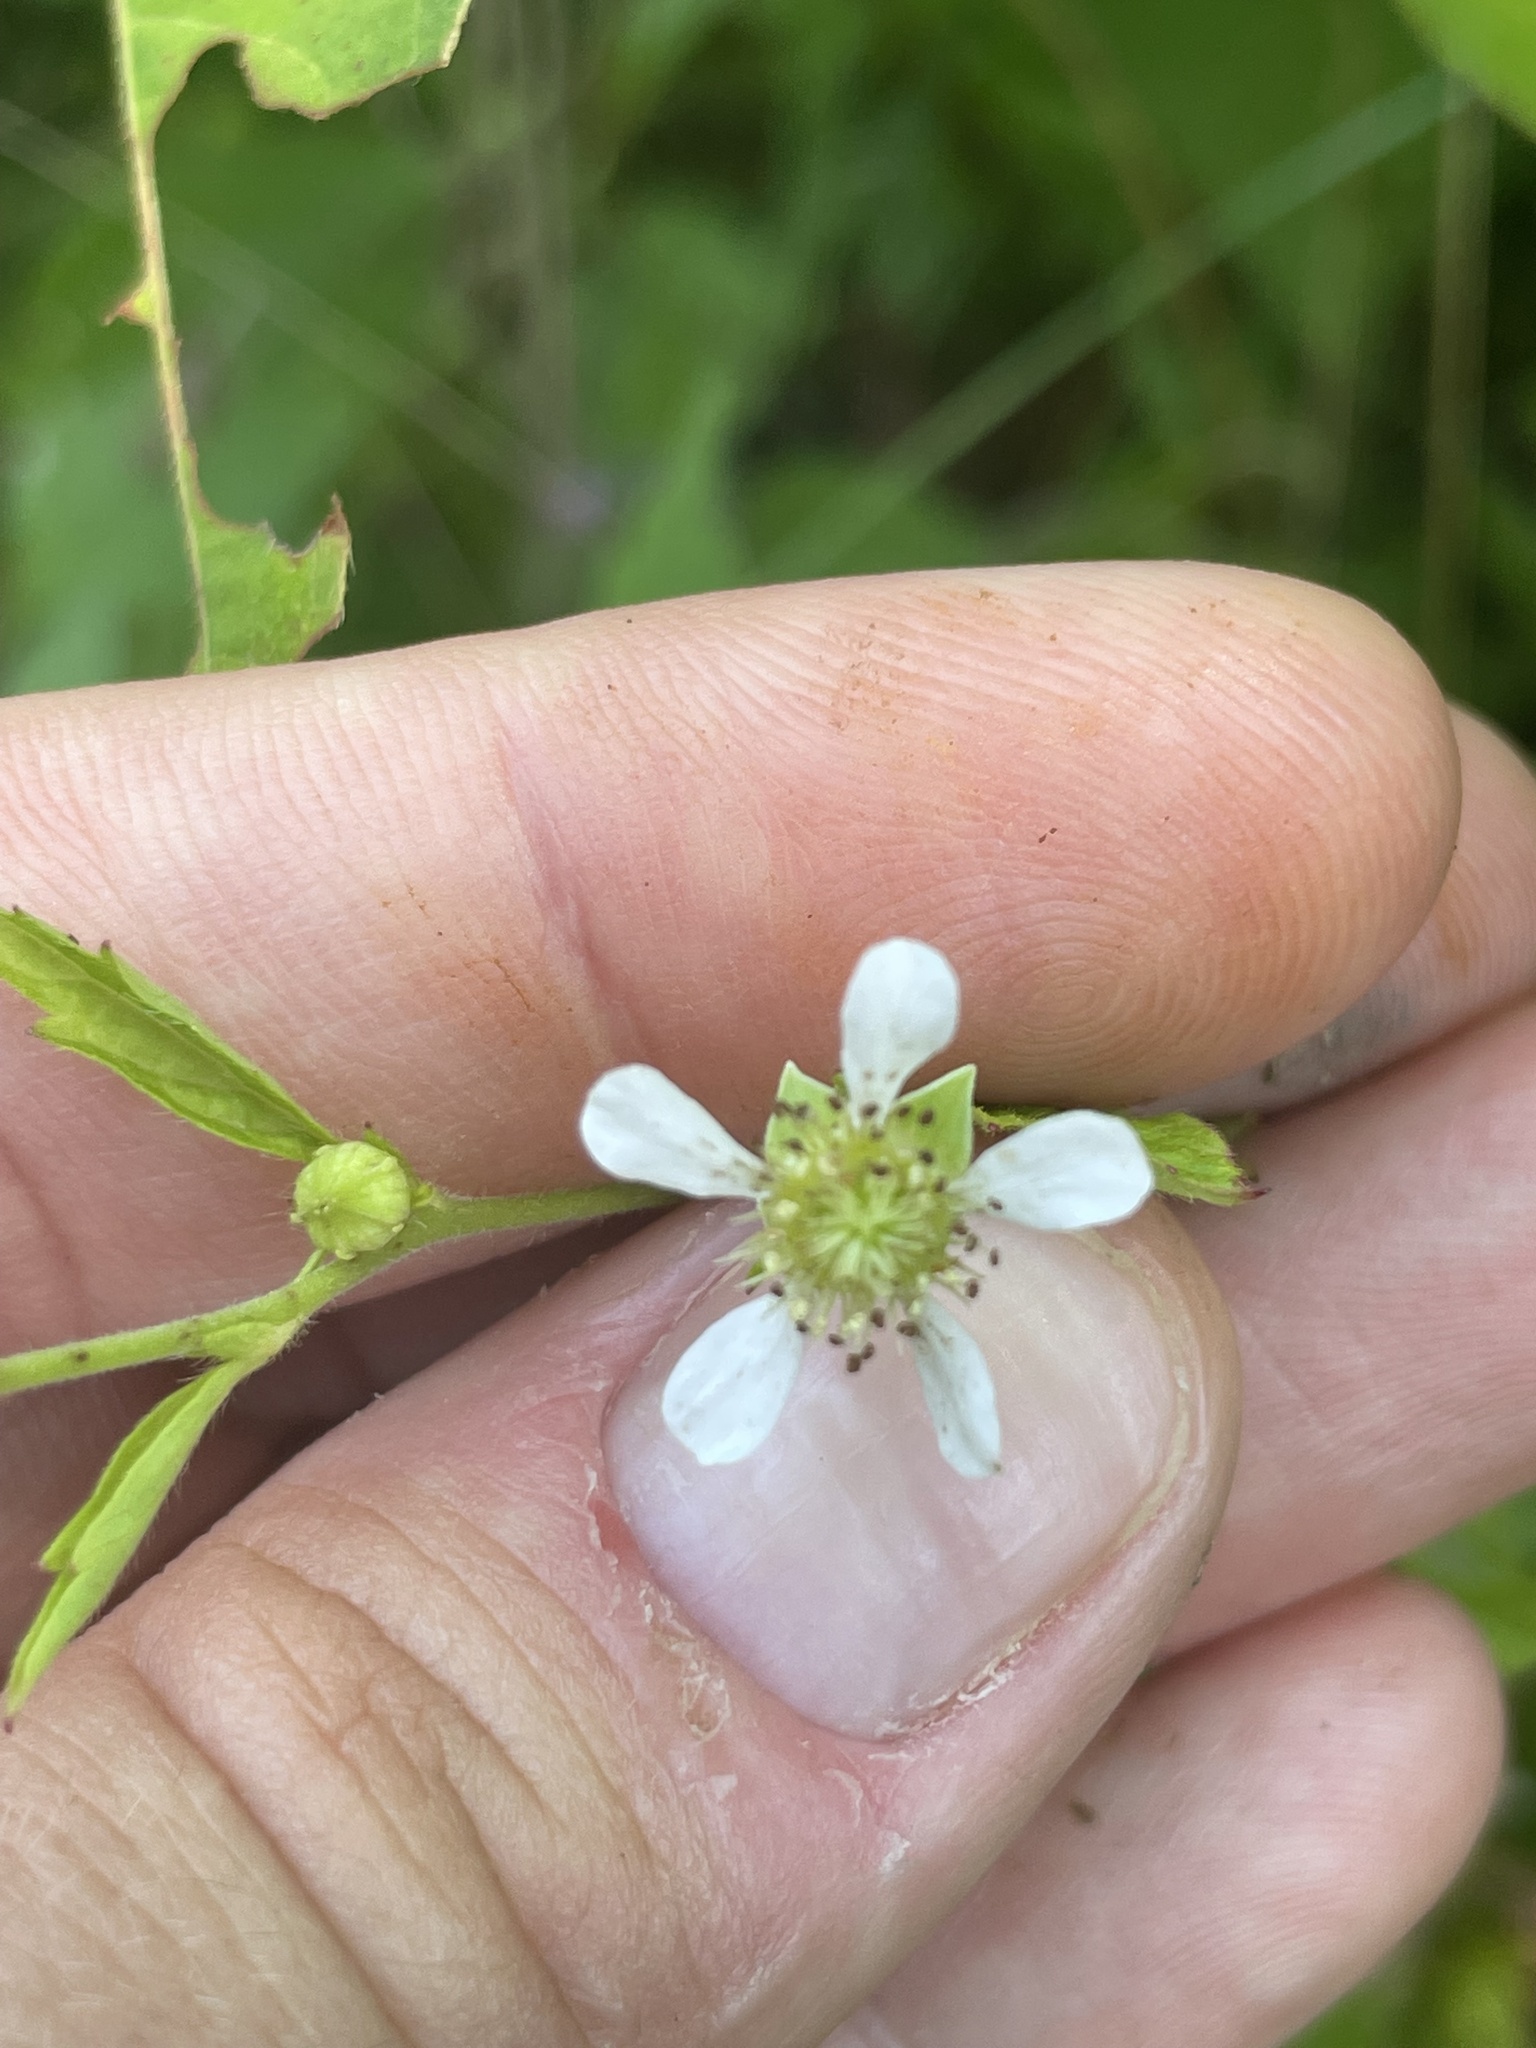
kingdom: Plantae
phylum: Tracheophyta
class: Magnoliopsida
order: Rosales
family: Rosaceae
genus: Geum
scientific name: Geum canadense
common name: White avens
